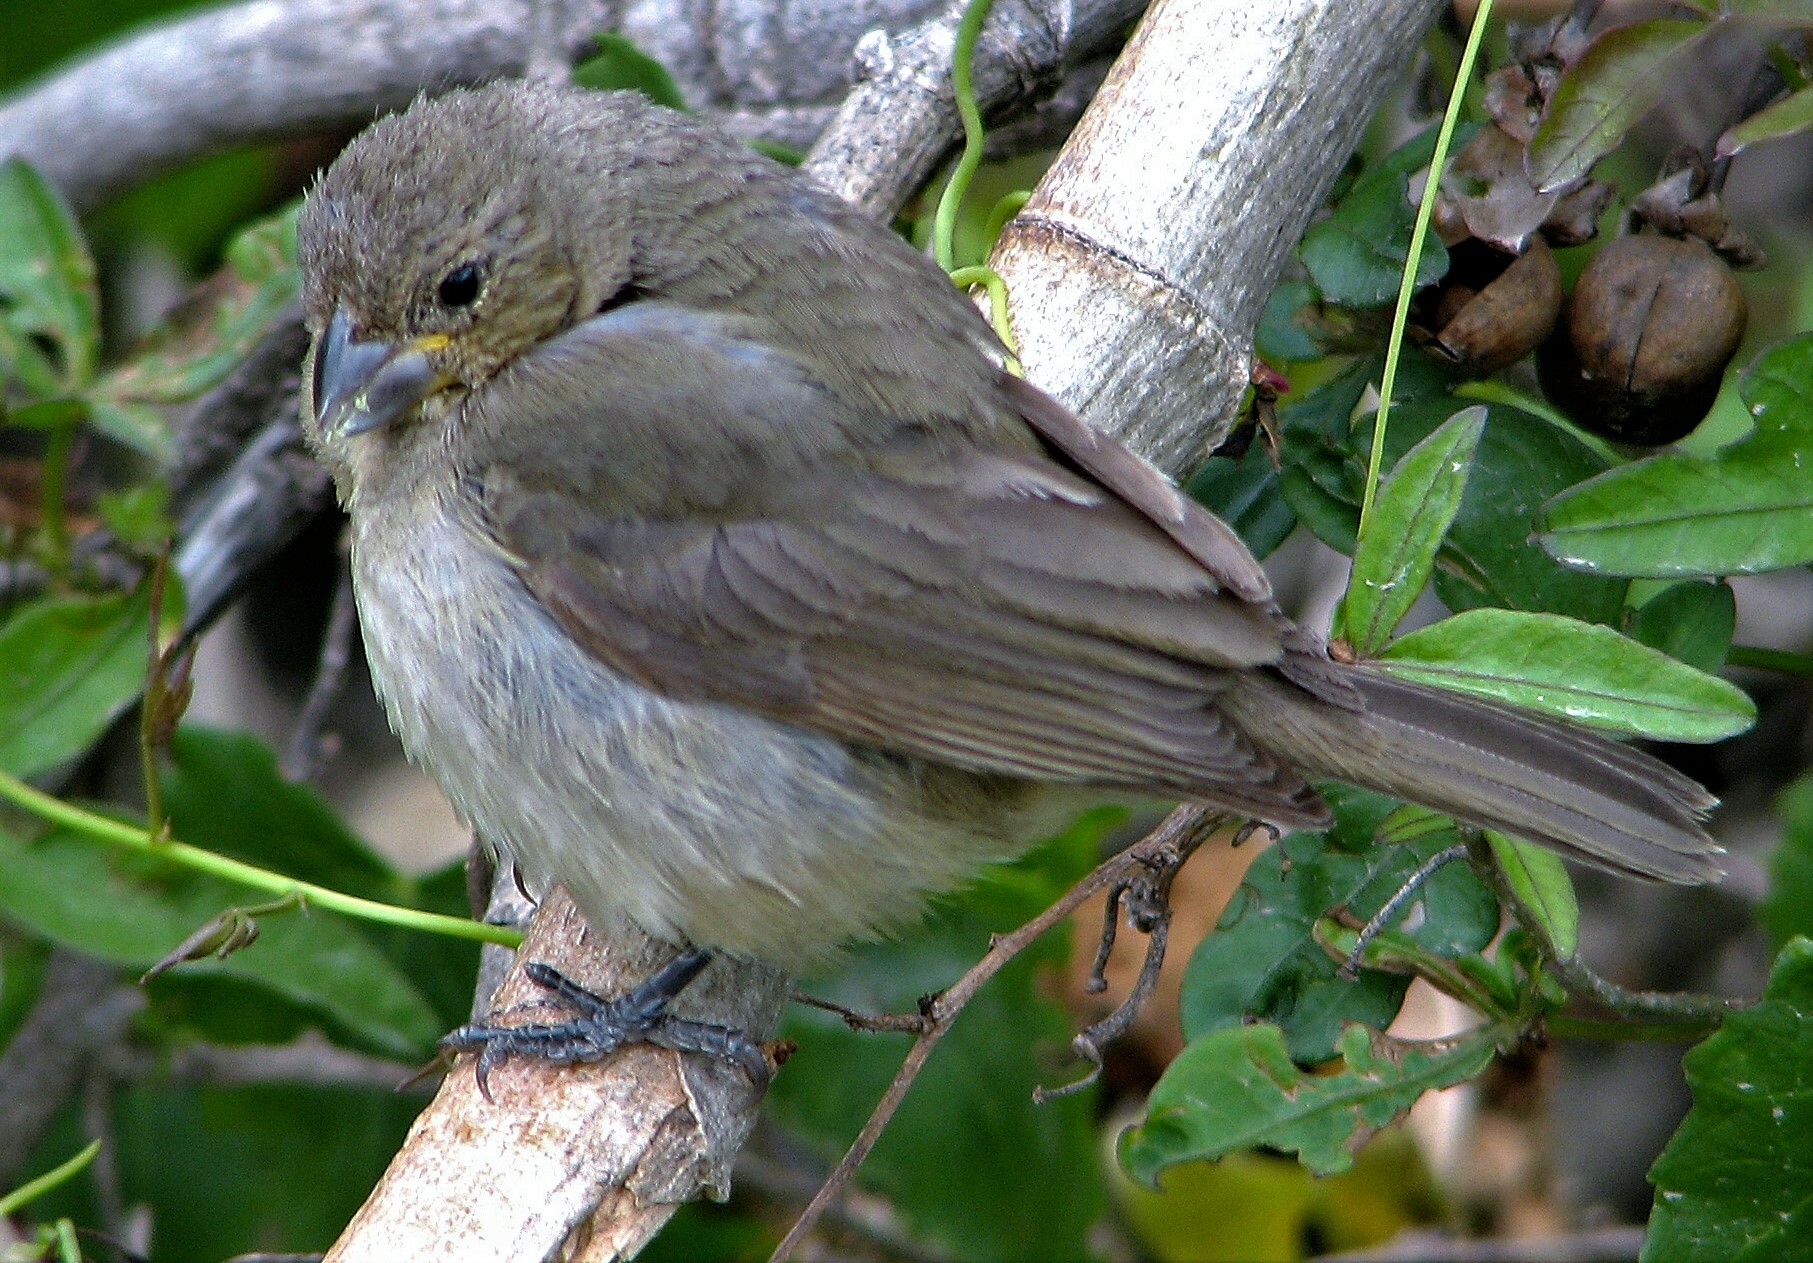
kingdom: Animalia
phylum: Chordata
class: Aves
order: Passeriformes
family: Thraupidae
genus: Sporophila
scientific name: Sporophila caerulescens
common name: Double-collared seedeater
